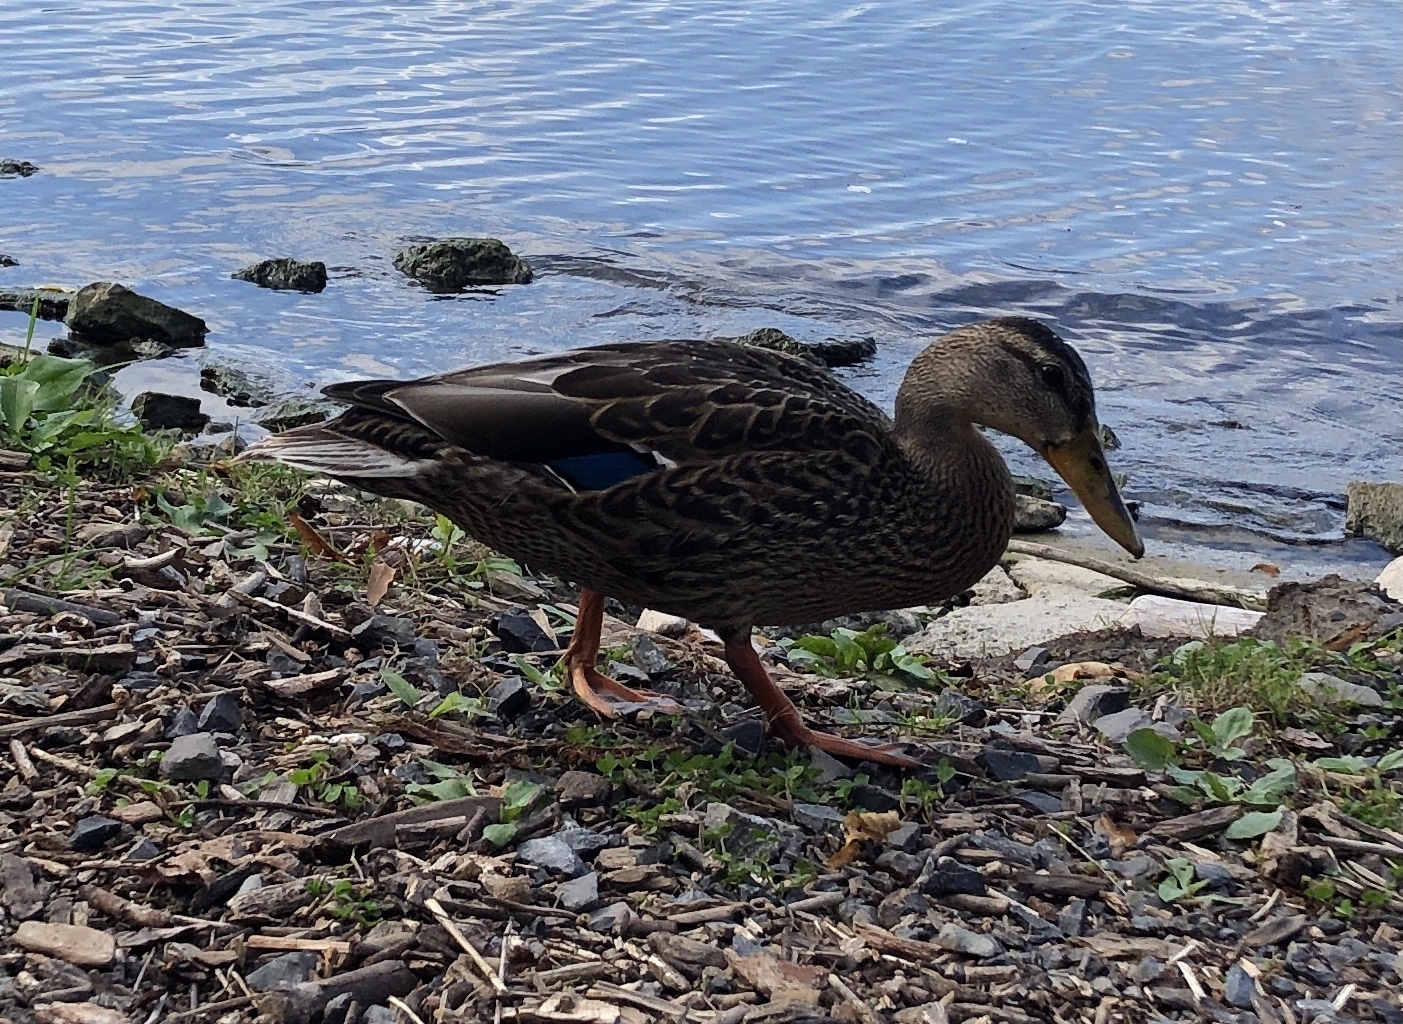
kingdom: Animalia
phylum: Chordata
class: Aves
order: Anseriformes
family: Anatidae
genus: Anas
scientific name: Anas platyrhynchos
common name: Mallard
